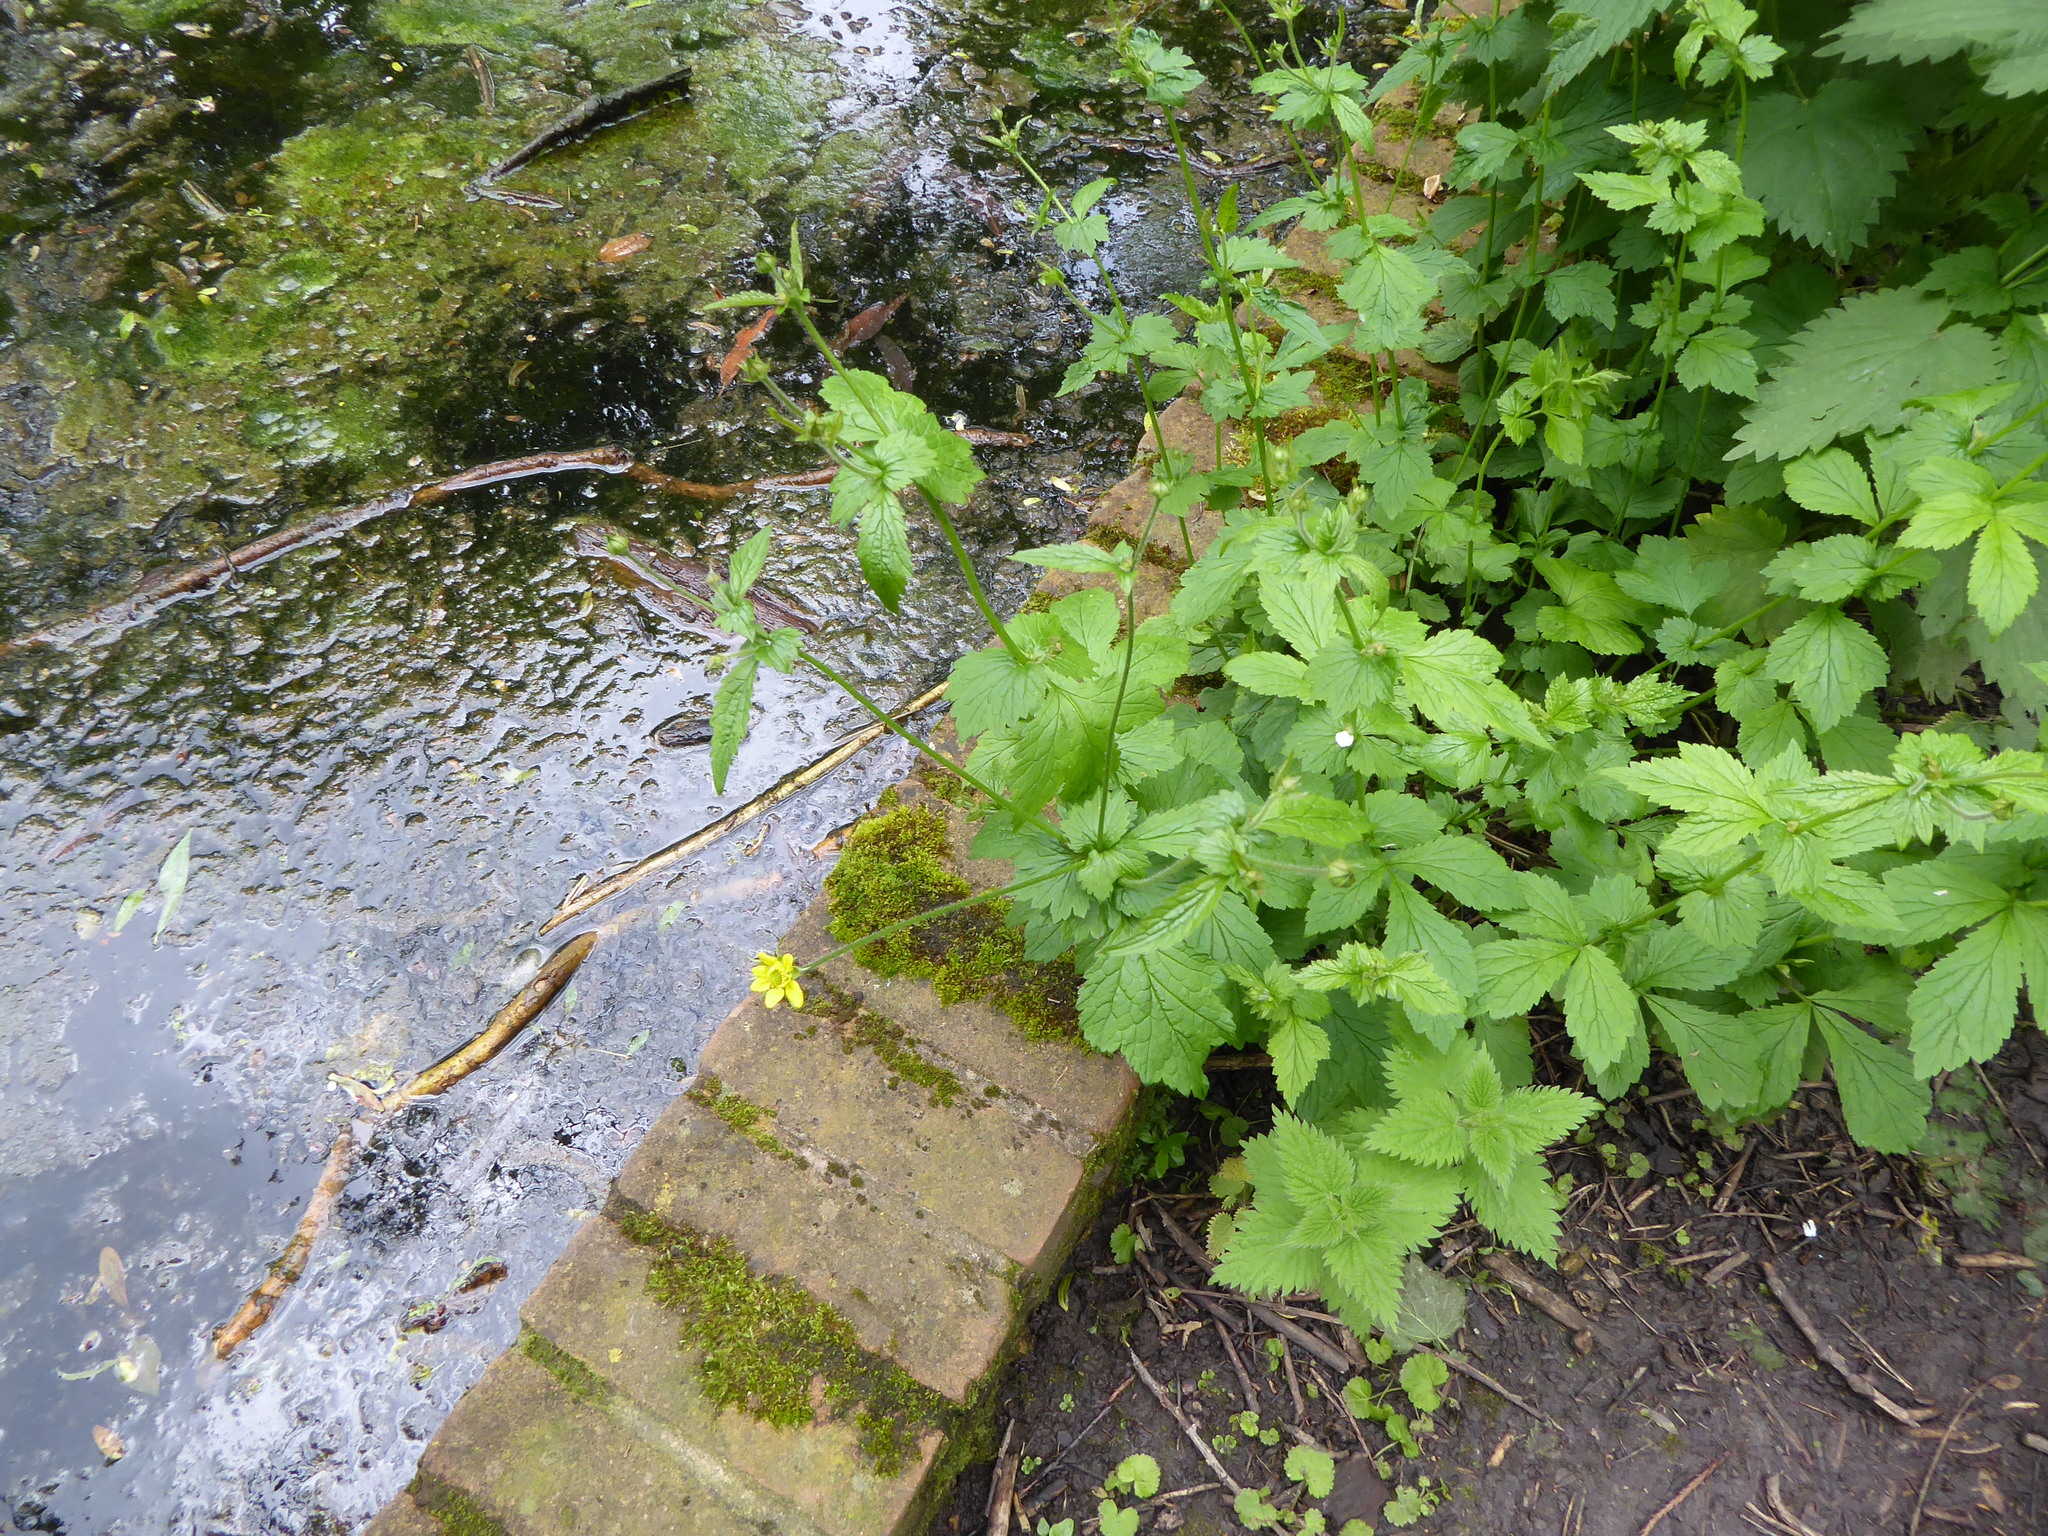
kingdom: Plantae
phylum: Tracheophyta
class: Magnoliopsida
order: Rosales
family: Rosaceae
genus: Geum
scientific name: Geum urbanum
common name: Wood avens
